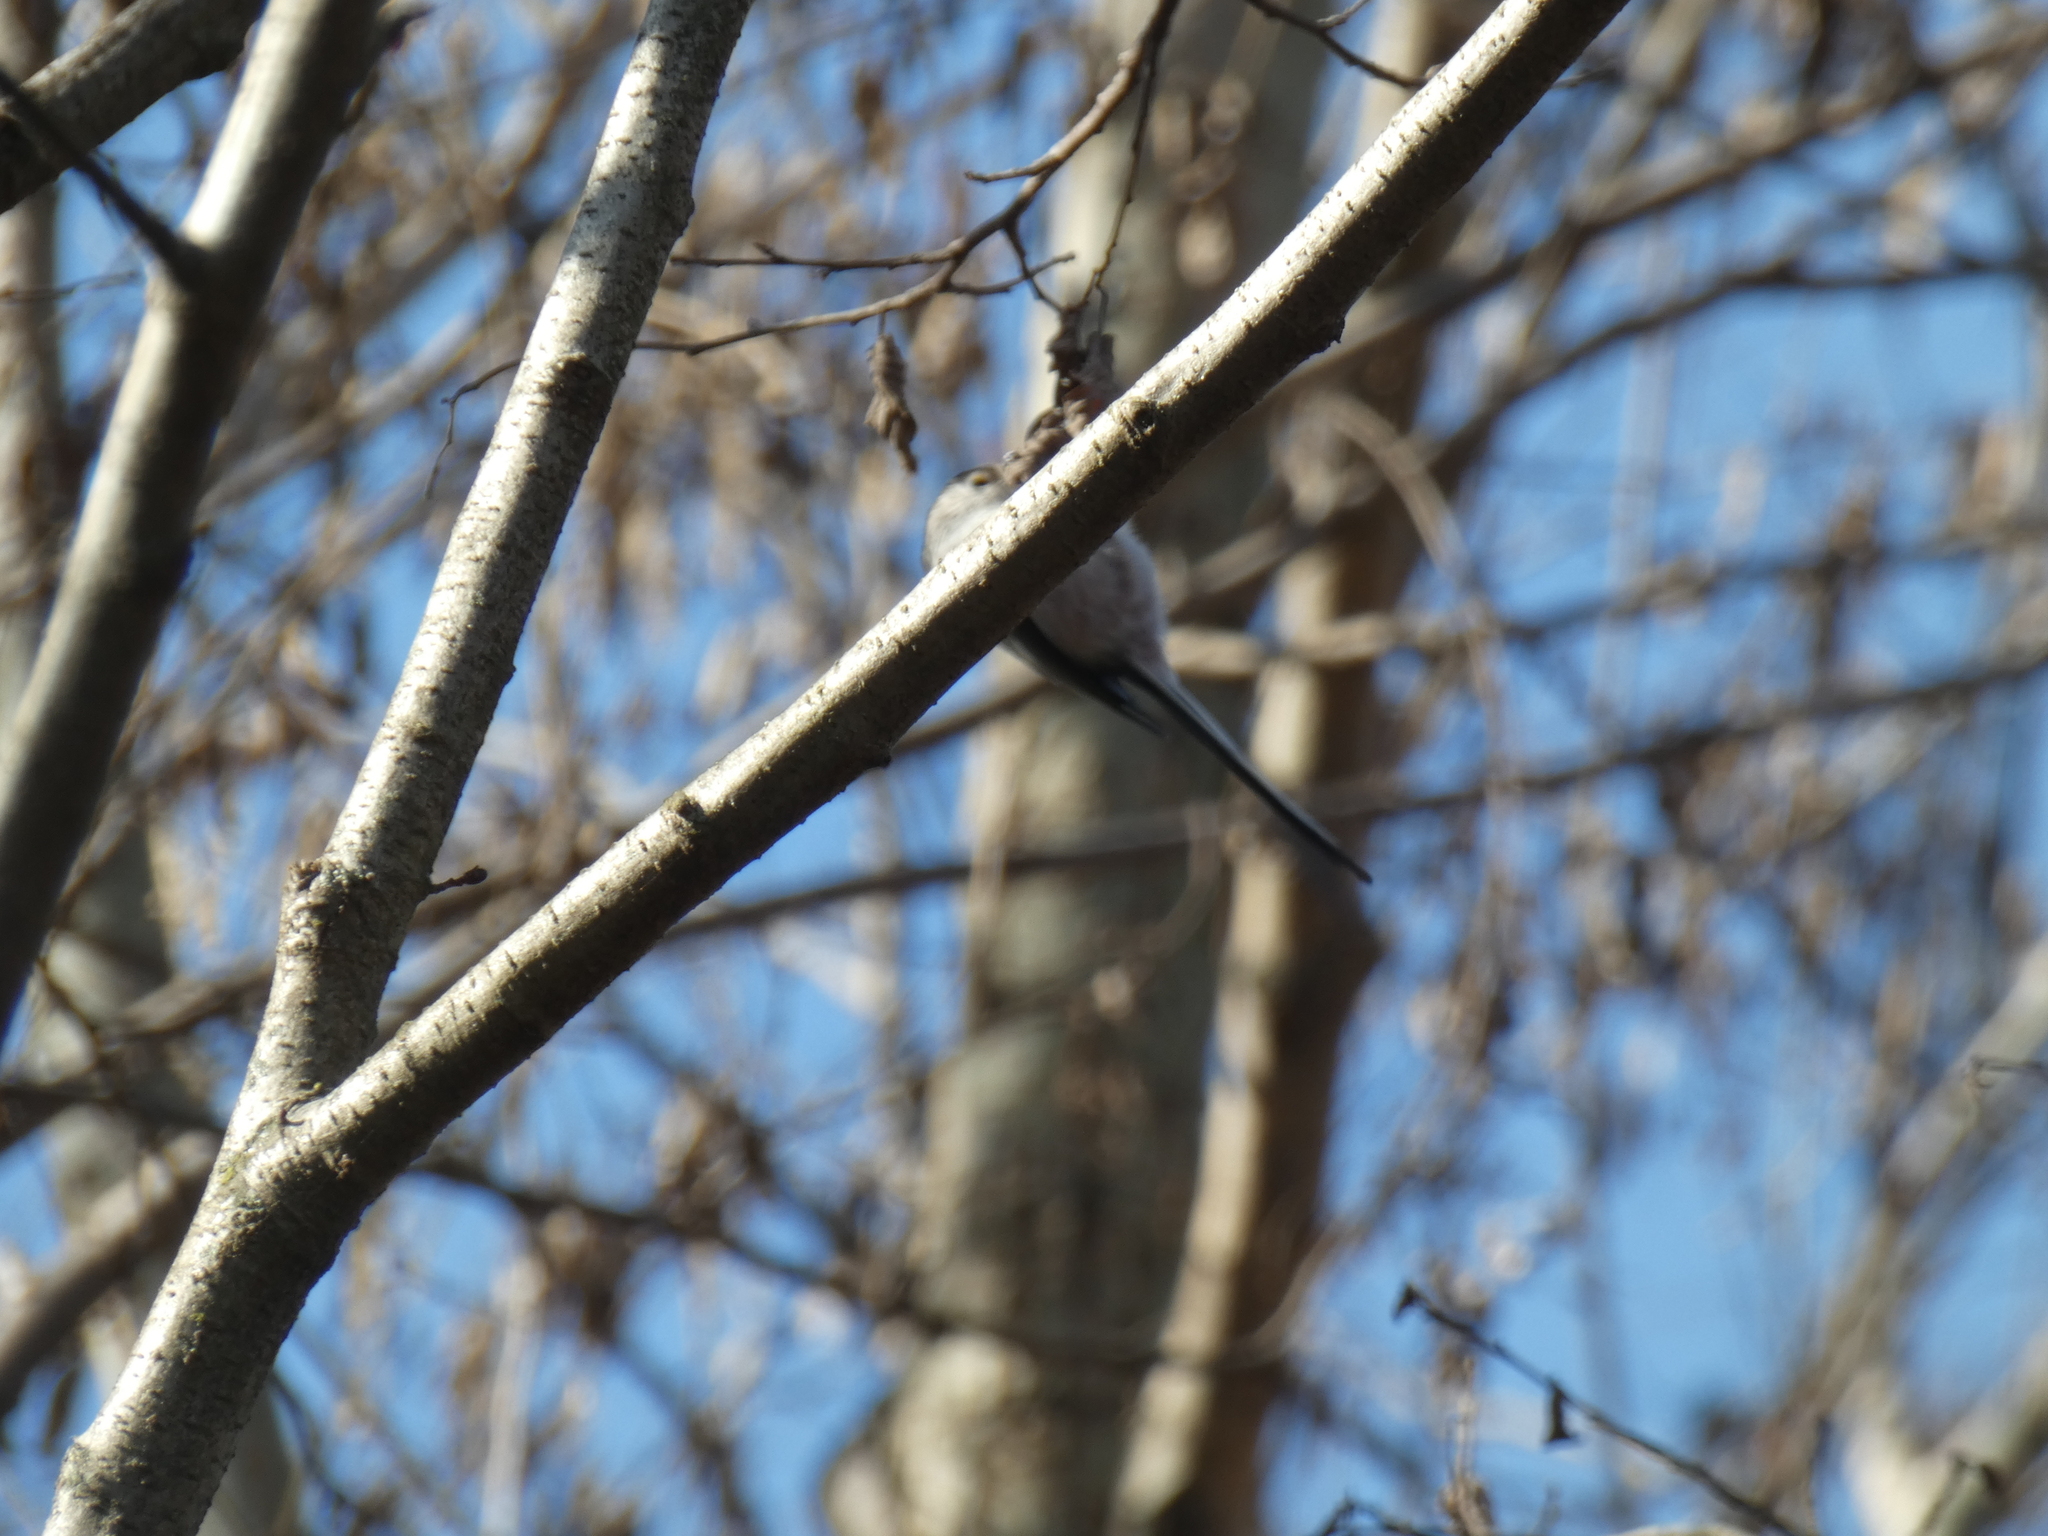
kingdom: Animalia
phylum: Chordata
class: Aves
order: Passeriformes
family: Aegithalidae
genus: Aegithalos
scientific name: Aegithalos caudatus
